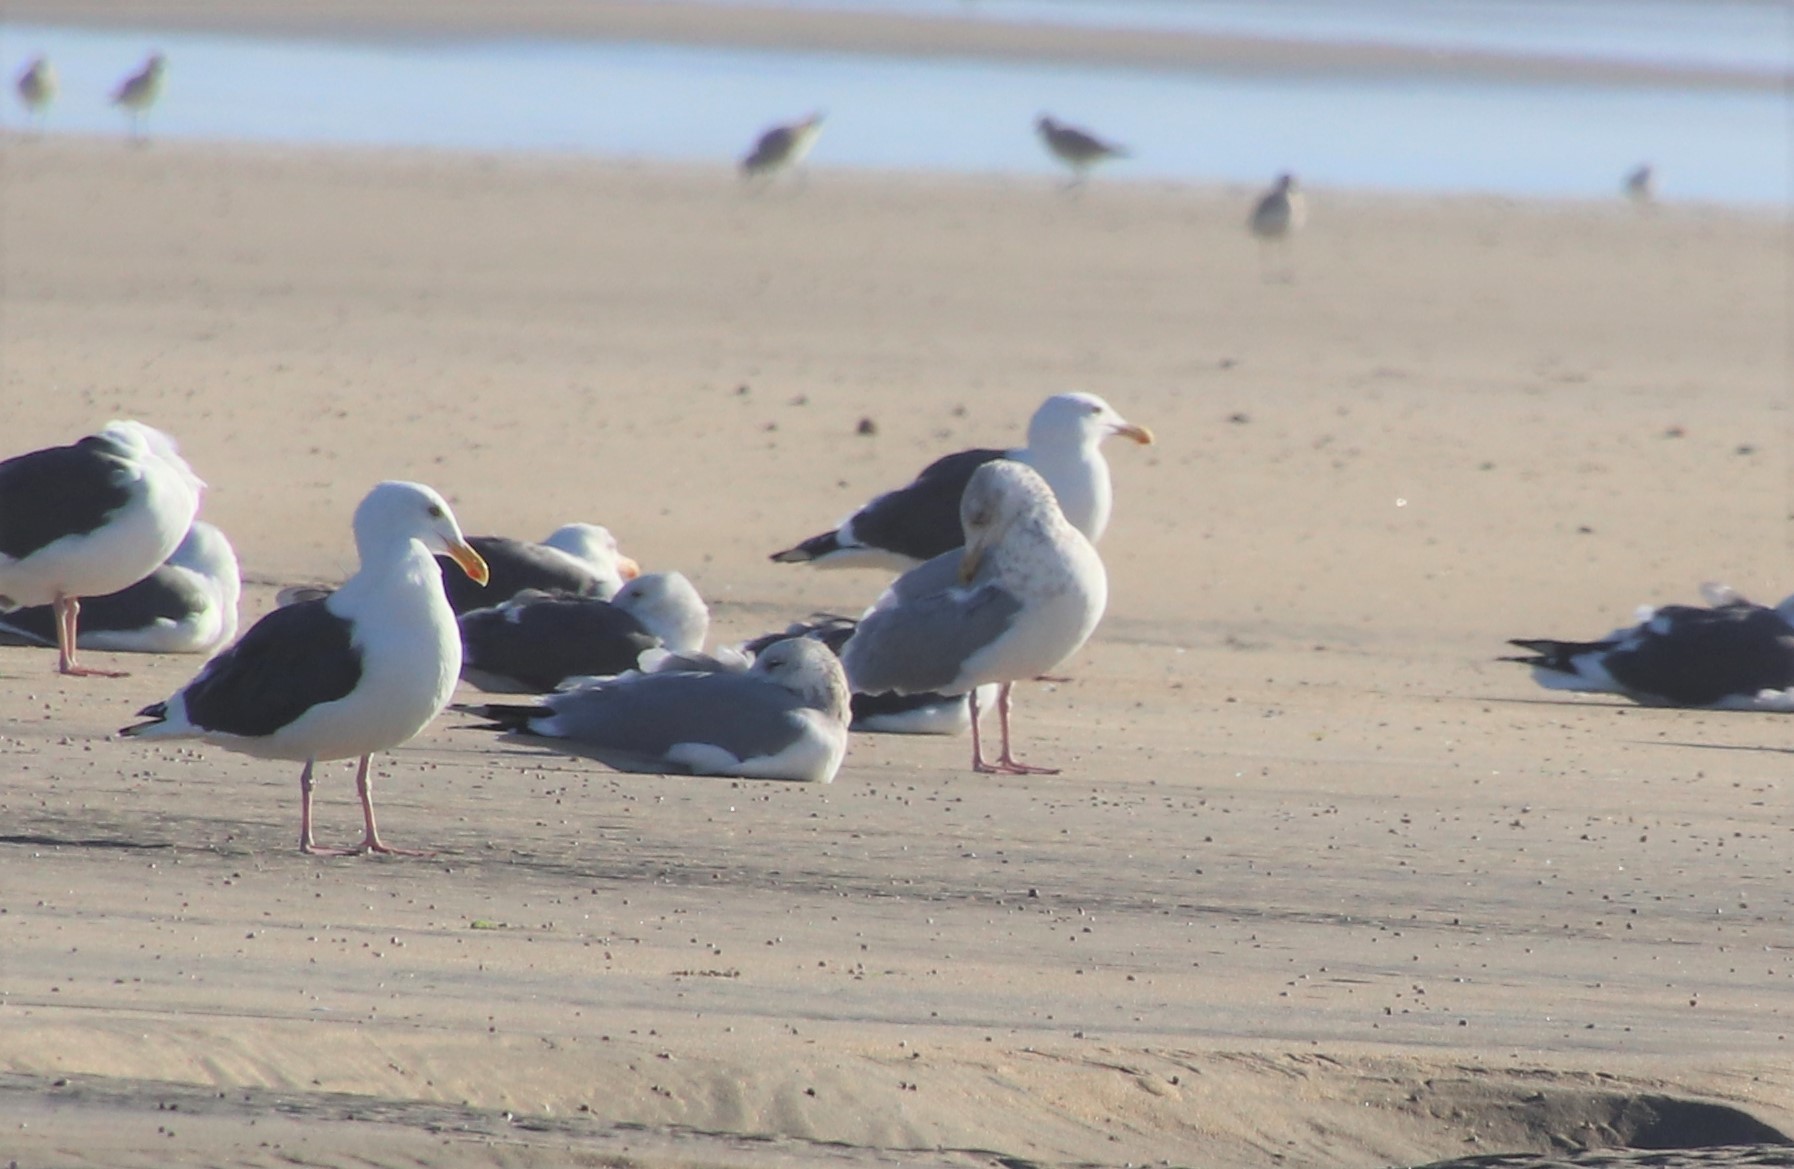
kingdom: Animalia
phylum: Chordata
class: Aves
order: Charadriiformes
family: Laridae
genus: Larus
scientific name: Larus argentatus
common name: Herring gull
